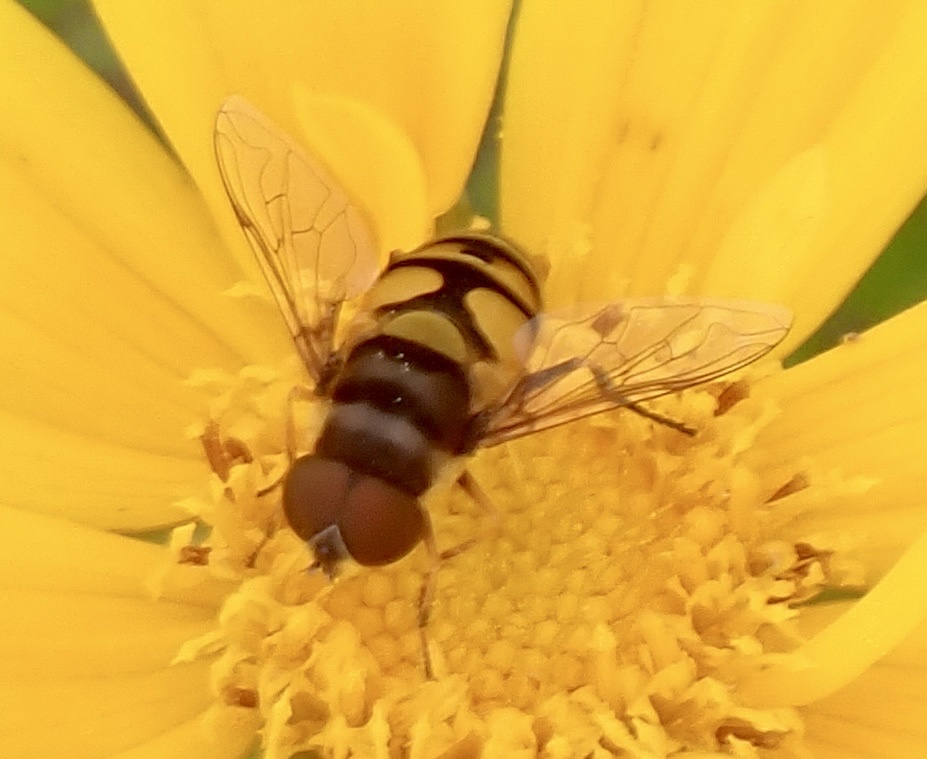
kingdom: Animalia
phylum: Arthropoda
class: Insecta
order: Diptera
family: Syrphidae
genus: Eristalis
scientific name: Eristalis transversa
